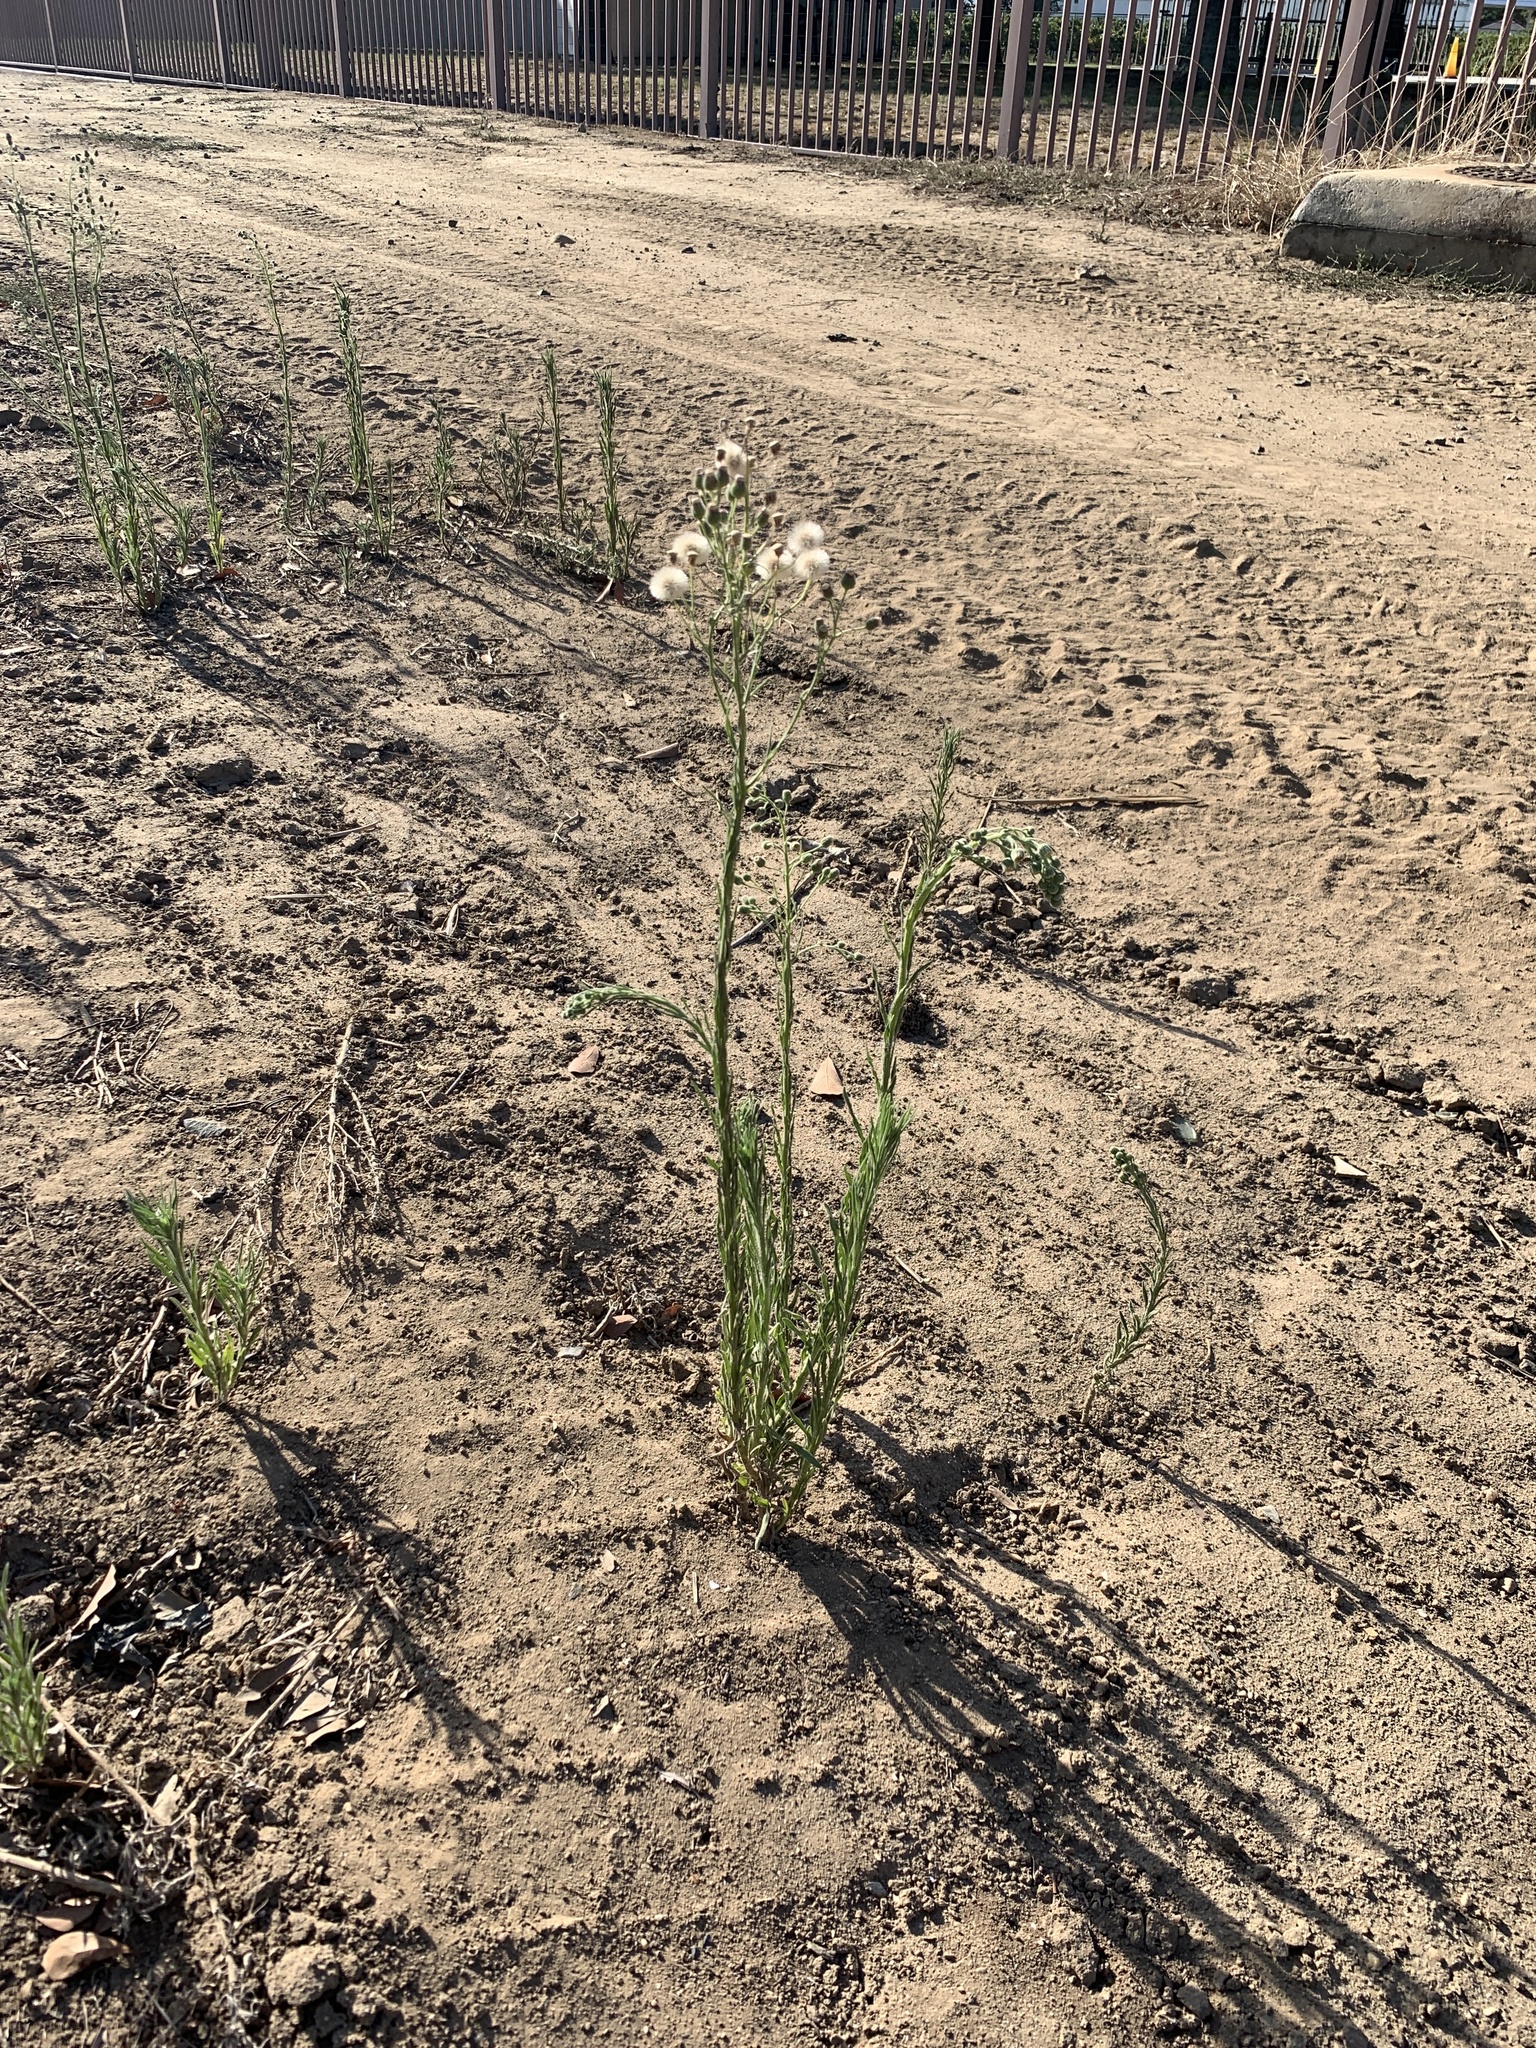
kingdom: Plantae
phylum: Tracheophyta
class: Magnoliopsida
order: Asterales
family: Asteraceae
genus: Erigeron
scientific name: Erigeron bonariensis
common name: Argentine fleabane
